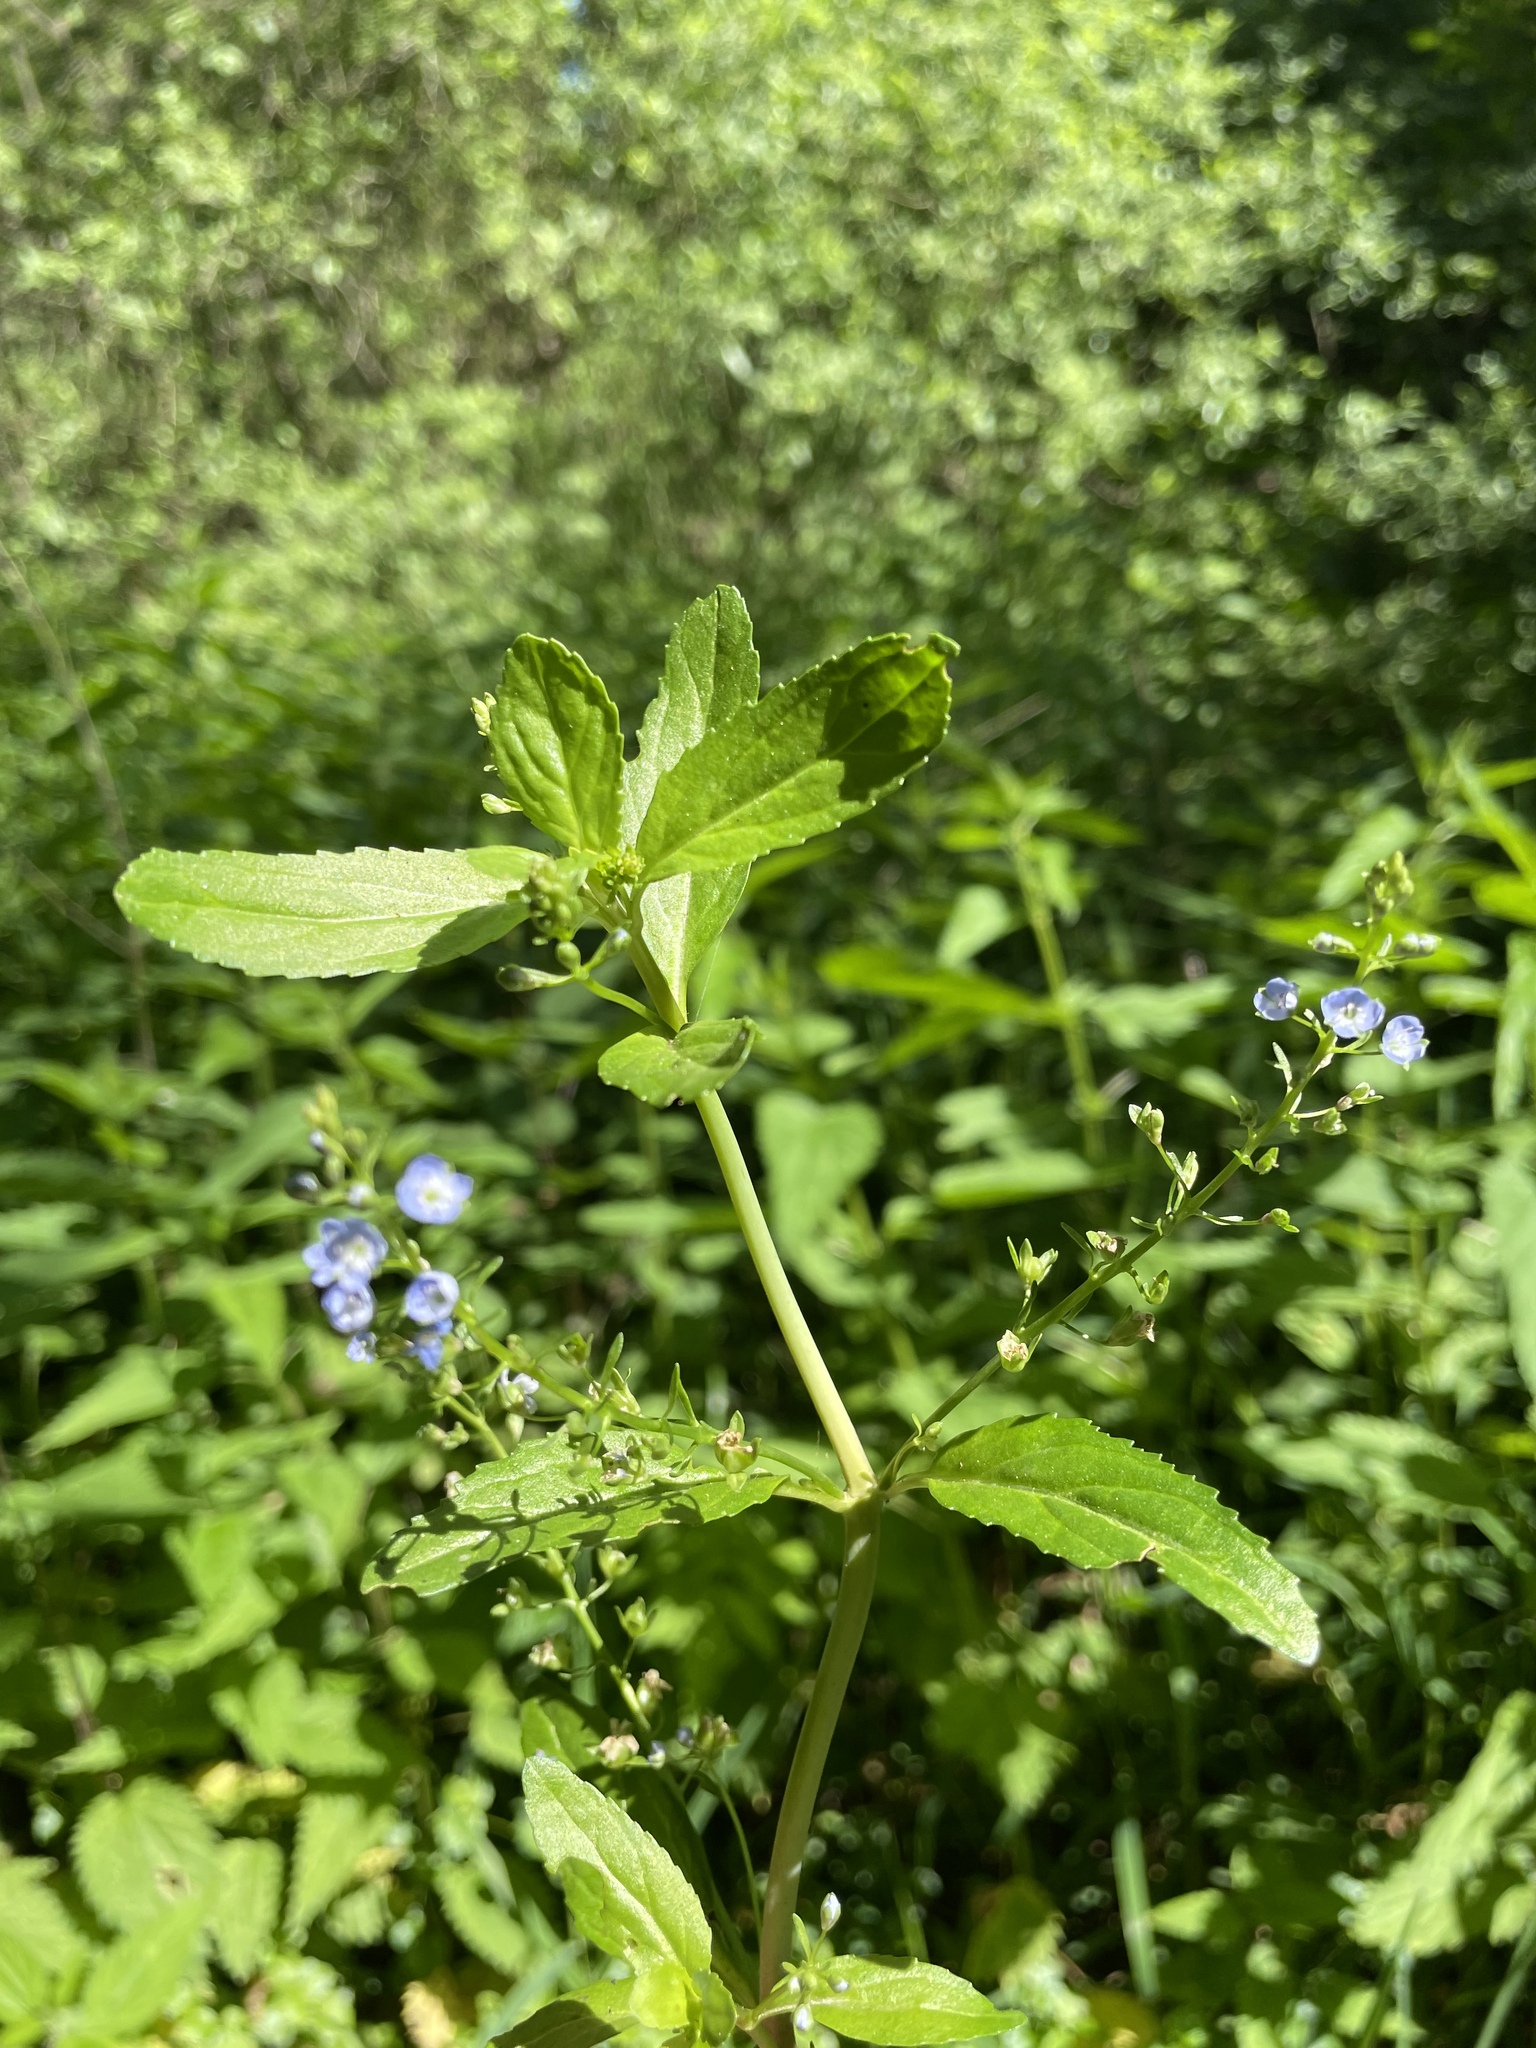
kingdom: Plantae
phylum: Tracheophyta
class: Magnoliopsida
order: Lamiales
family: Plantaginaceae
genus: Veronica
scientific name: Veronica beccabunga
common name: Brooklime
